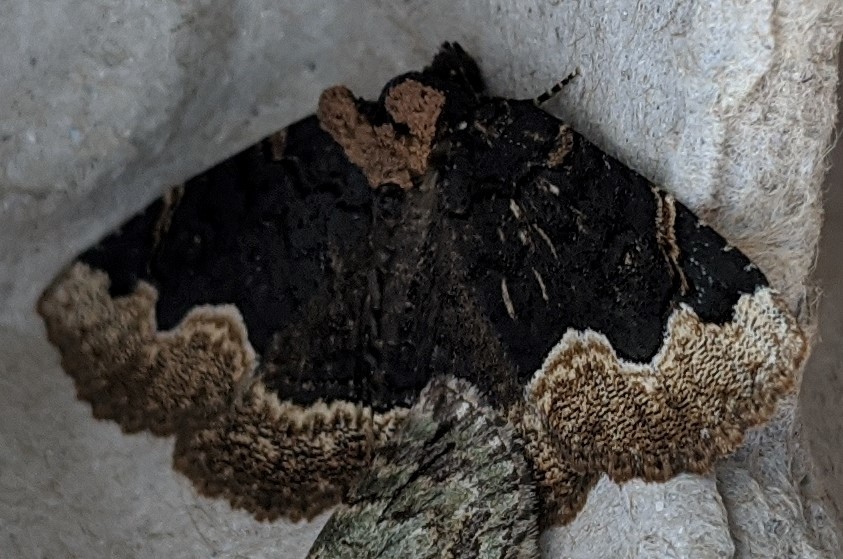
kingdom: Animalia
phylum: Arthropoda
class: Insecta
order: Lepidoptera
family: Erebidae
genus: Zale
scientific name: Zale horrida
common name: Horrid zale moth
